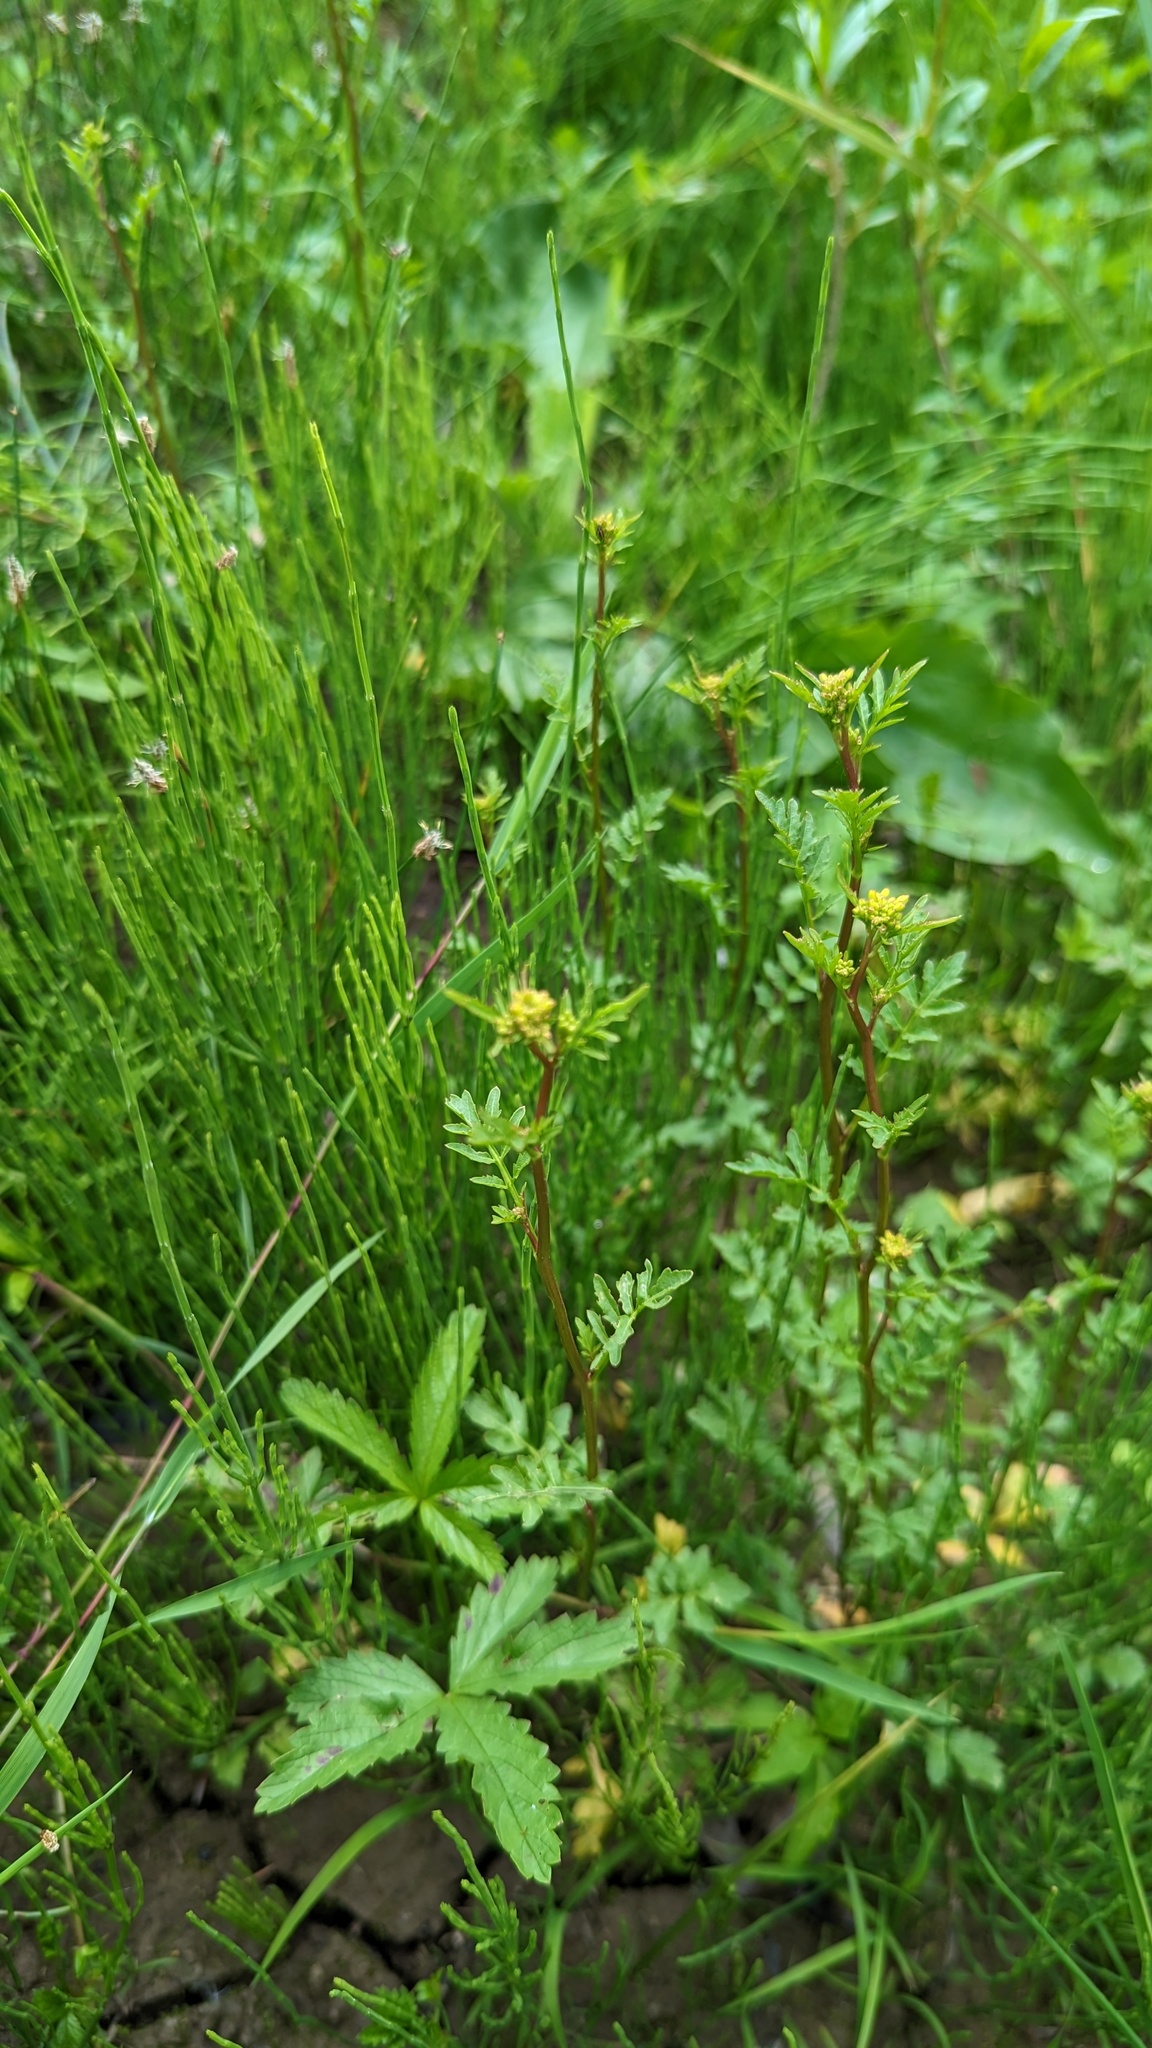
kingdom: Plantae
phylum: Tracheophyta
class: Magnoliopsida
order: Brassicales
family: Brassicaceae
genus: Rorippa
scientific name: Rorippa sylvestris
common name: Creeping yellowcress
